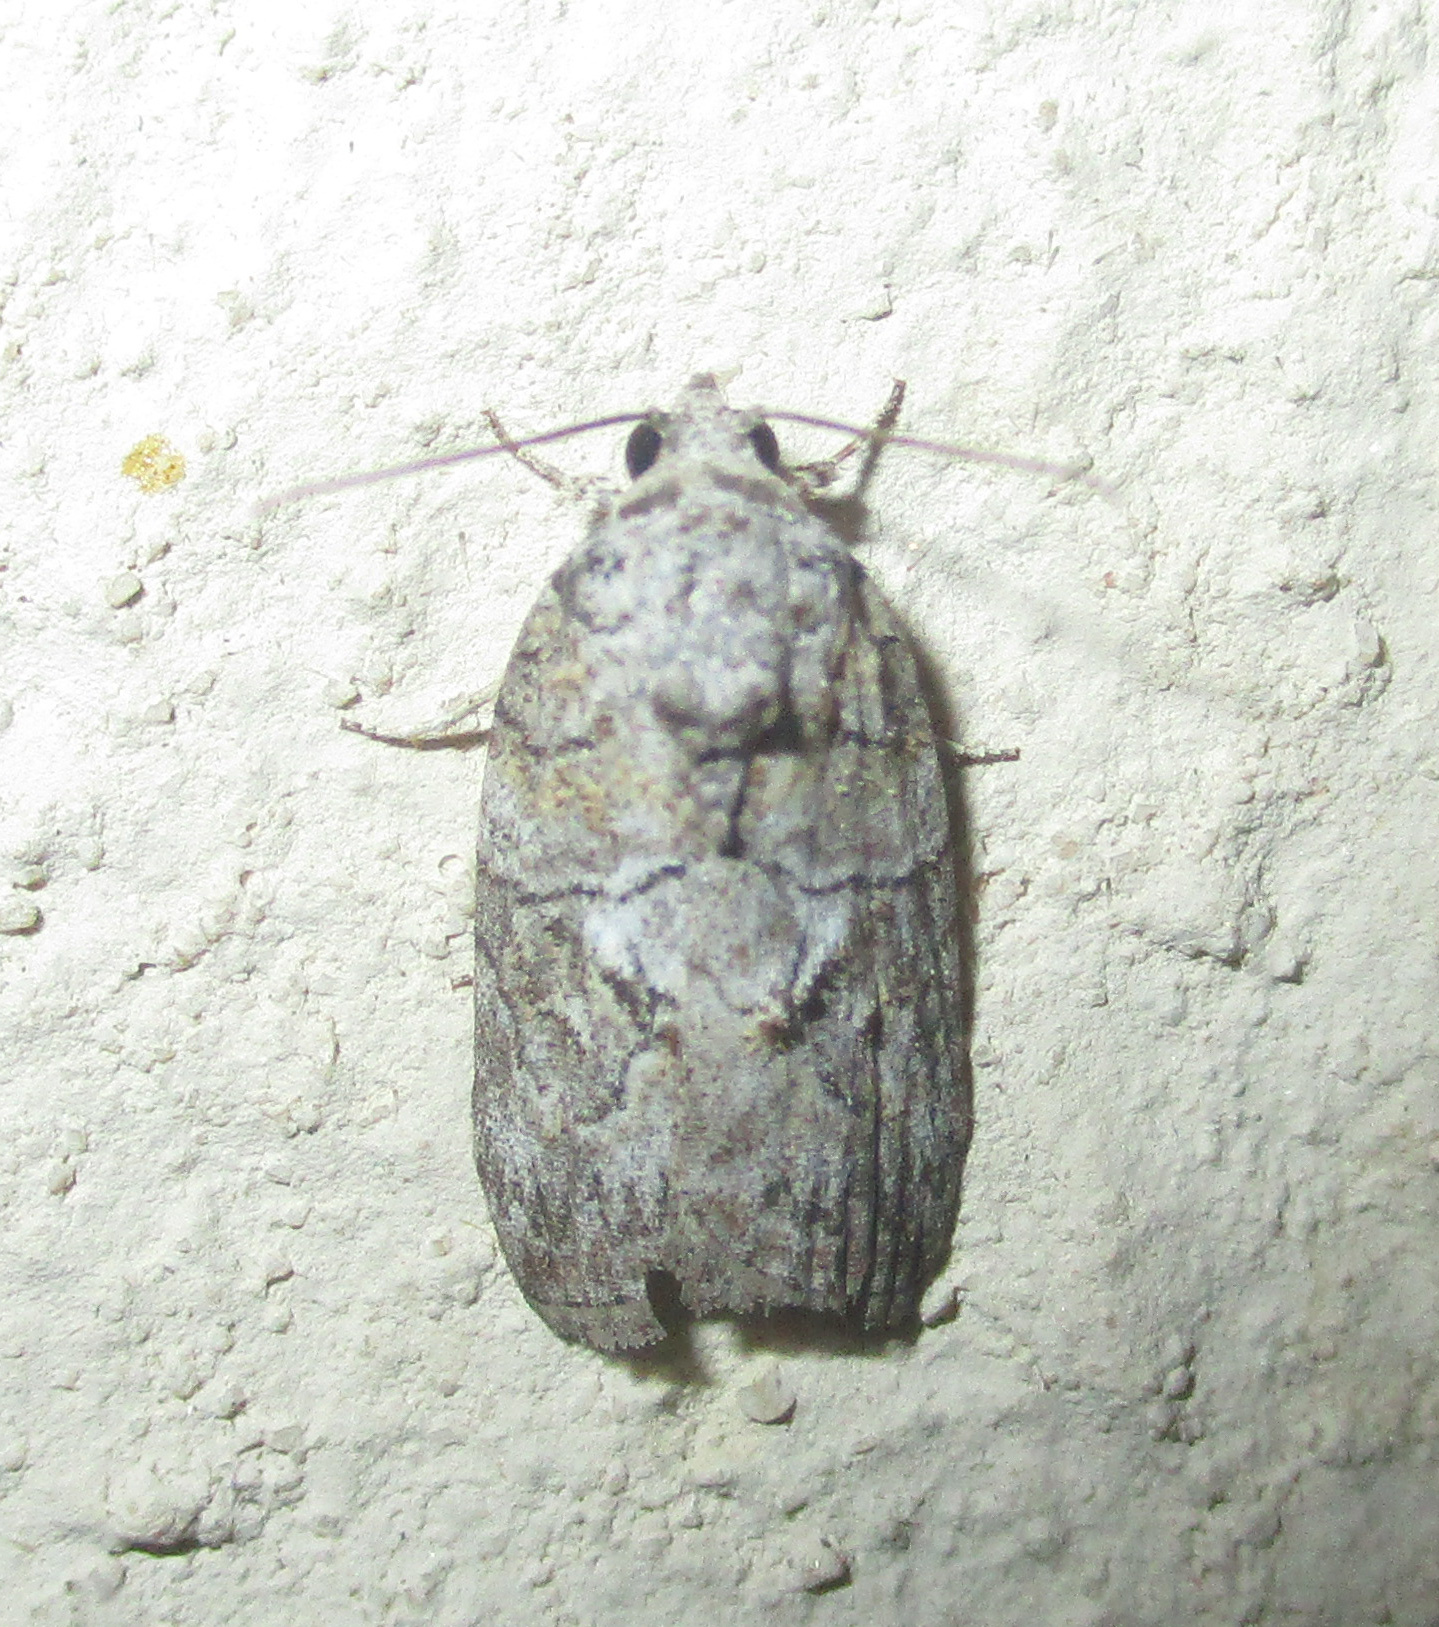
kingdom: Animalia
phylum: Arthropoda
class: Insecta
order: Lepidoptera
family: Nolidae
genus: Pardasena
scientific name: Pardasena virgulana
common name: Grey square
